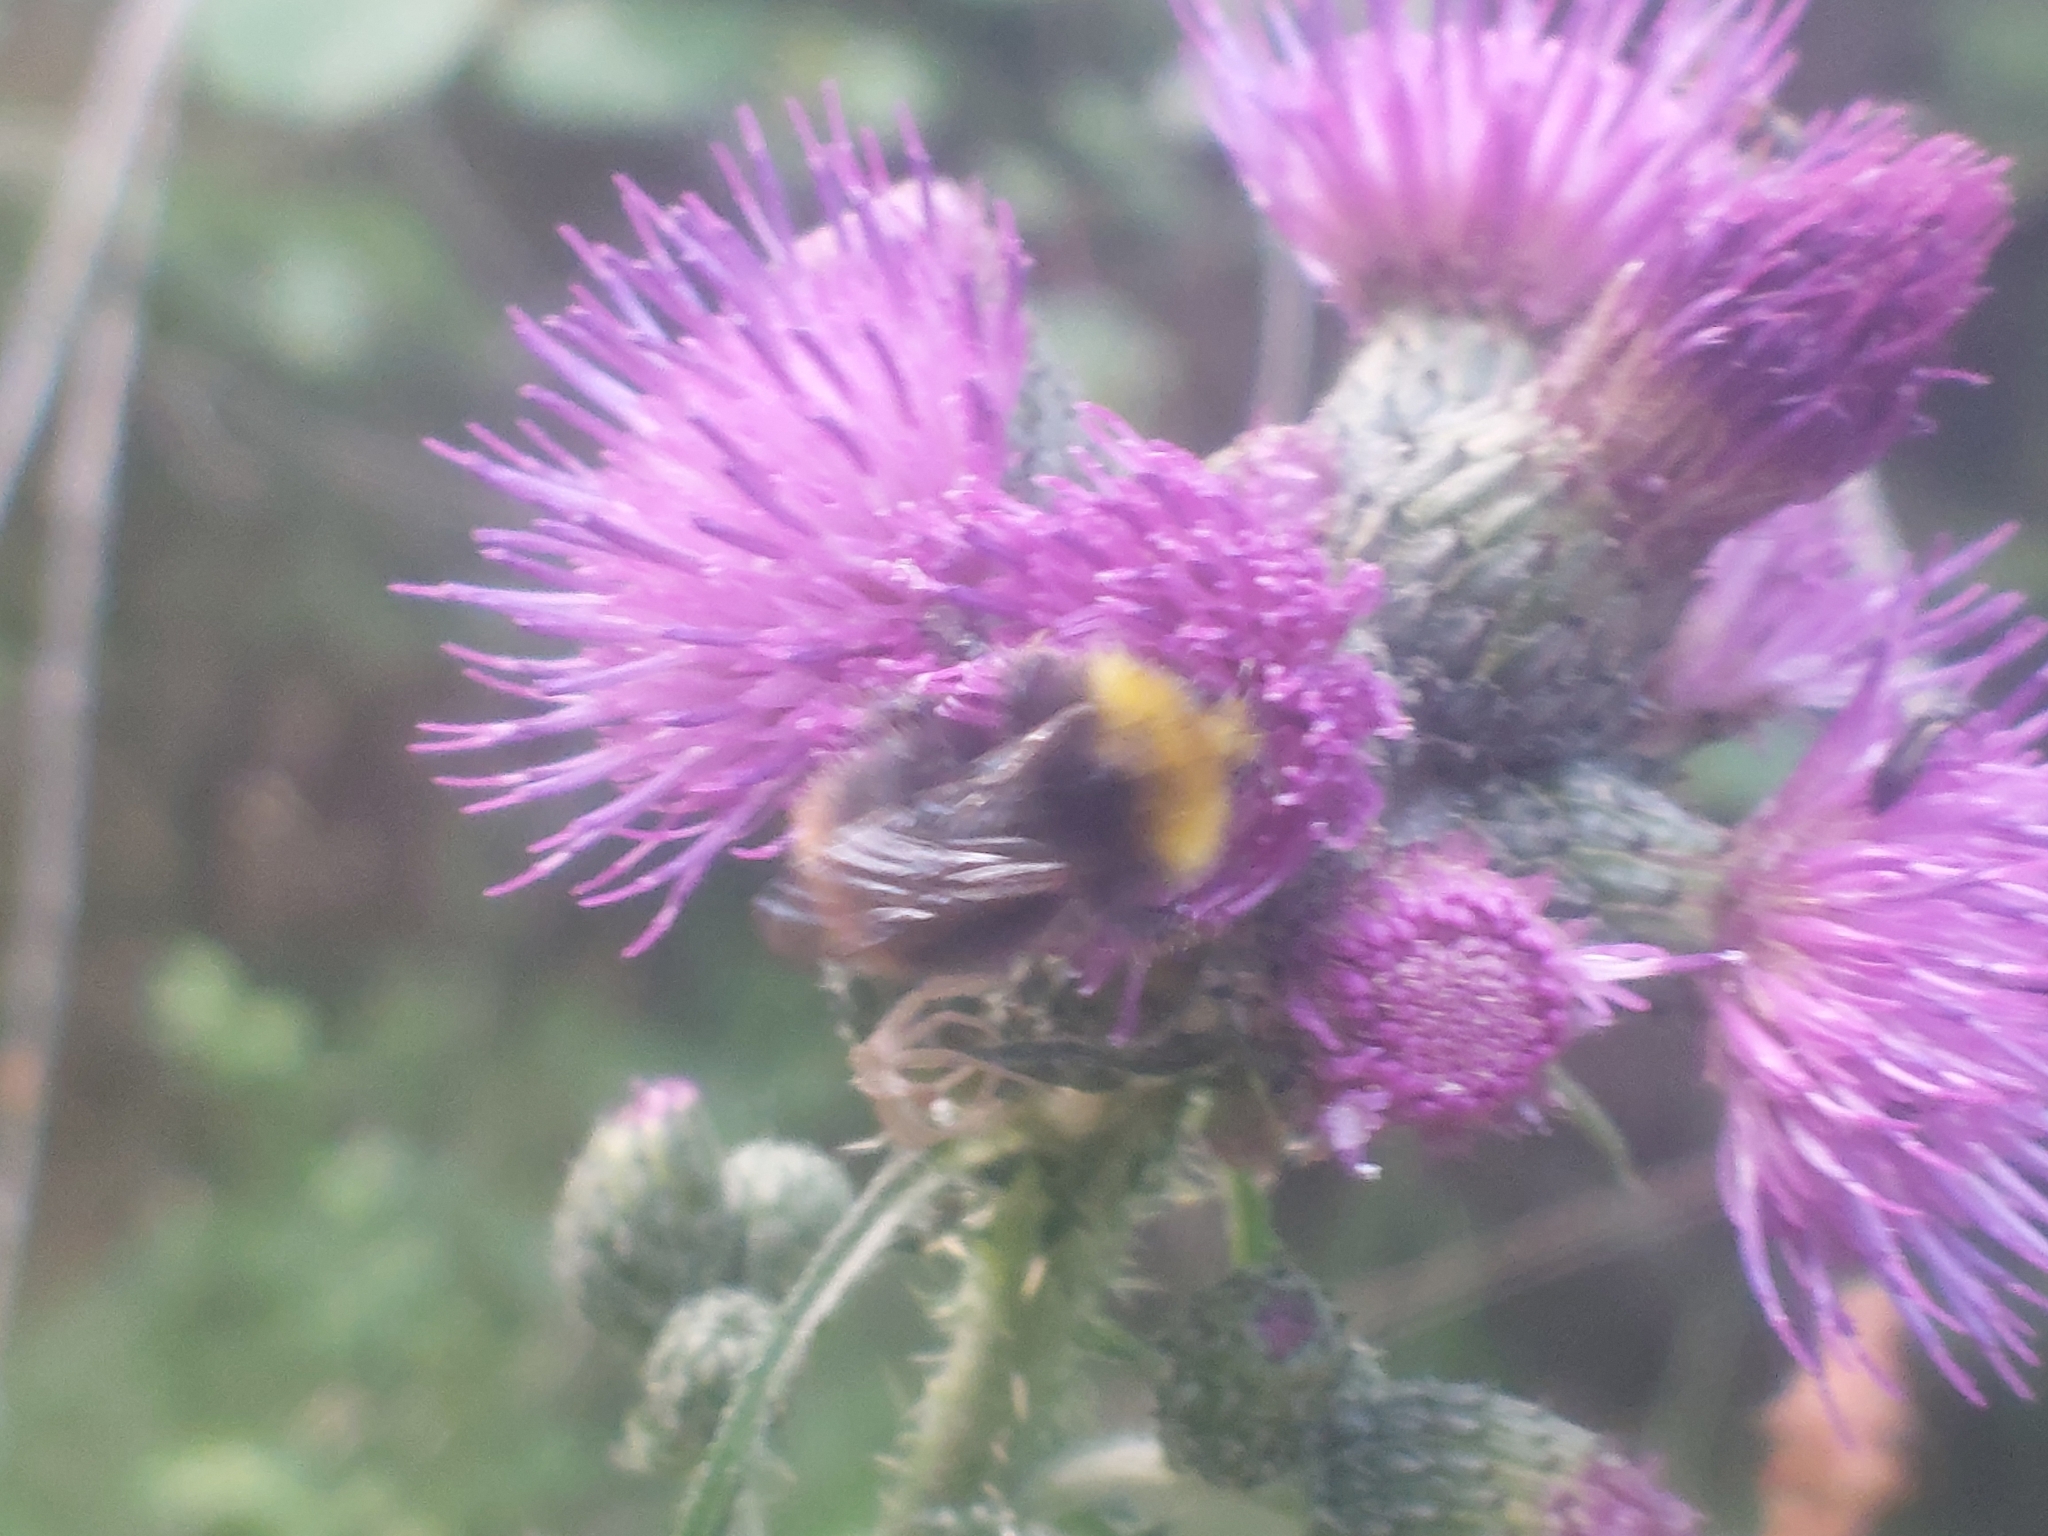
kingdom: Animalia
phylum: Arthropoda
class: Insecta
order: Hymenoptera
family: Apidae
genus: Bombus
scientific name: Bombus pratorum
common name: Early humble-bee
